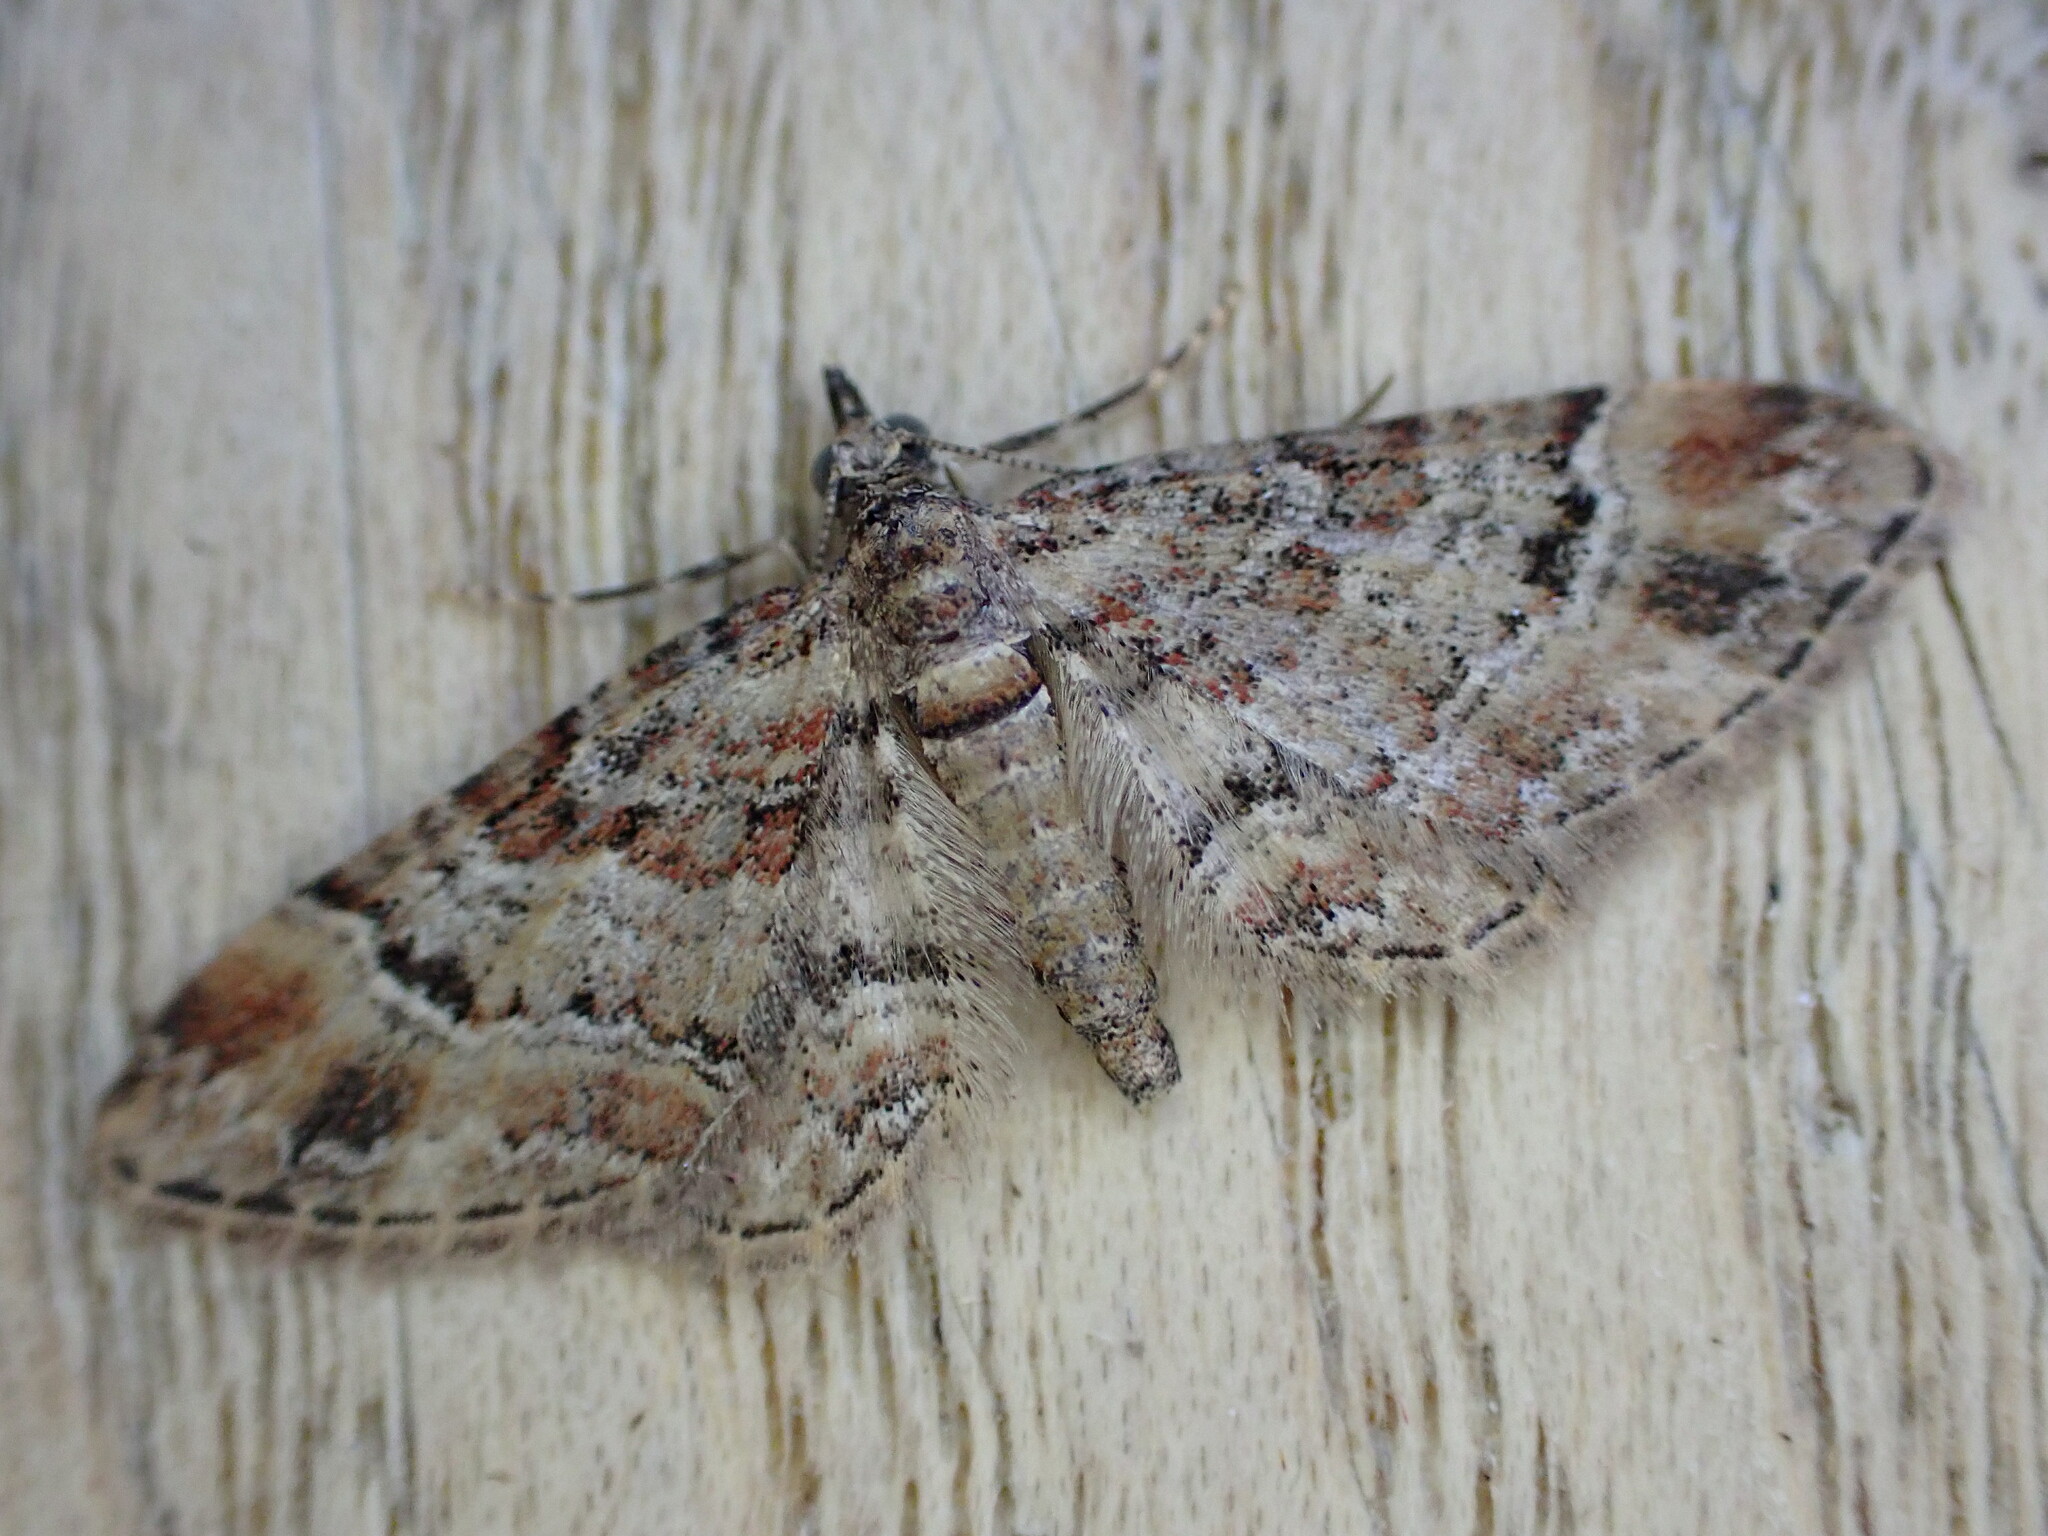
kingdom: Animalia
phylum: Arthropoda
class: Insecta
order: Lepidoptera
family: Geometridae
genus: Eupithecia
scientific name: Eupithecia pulchellata
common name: Foxglove pug
